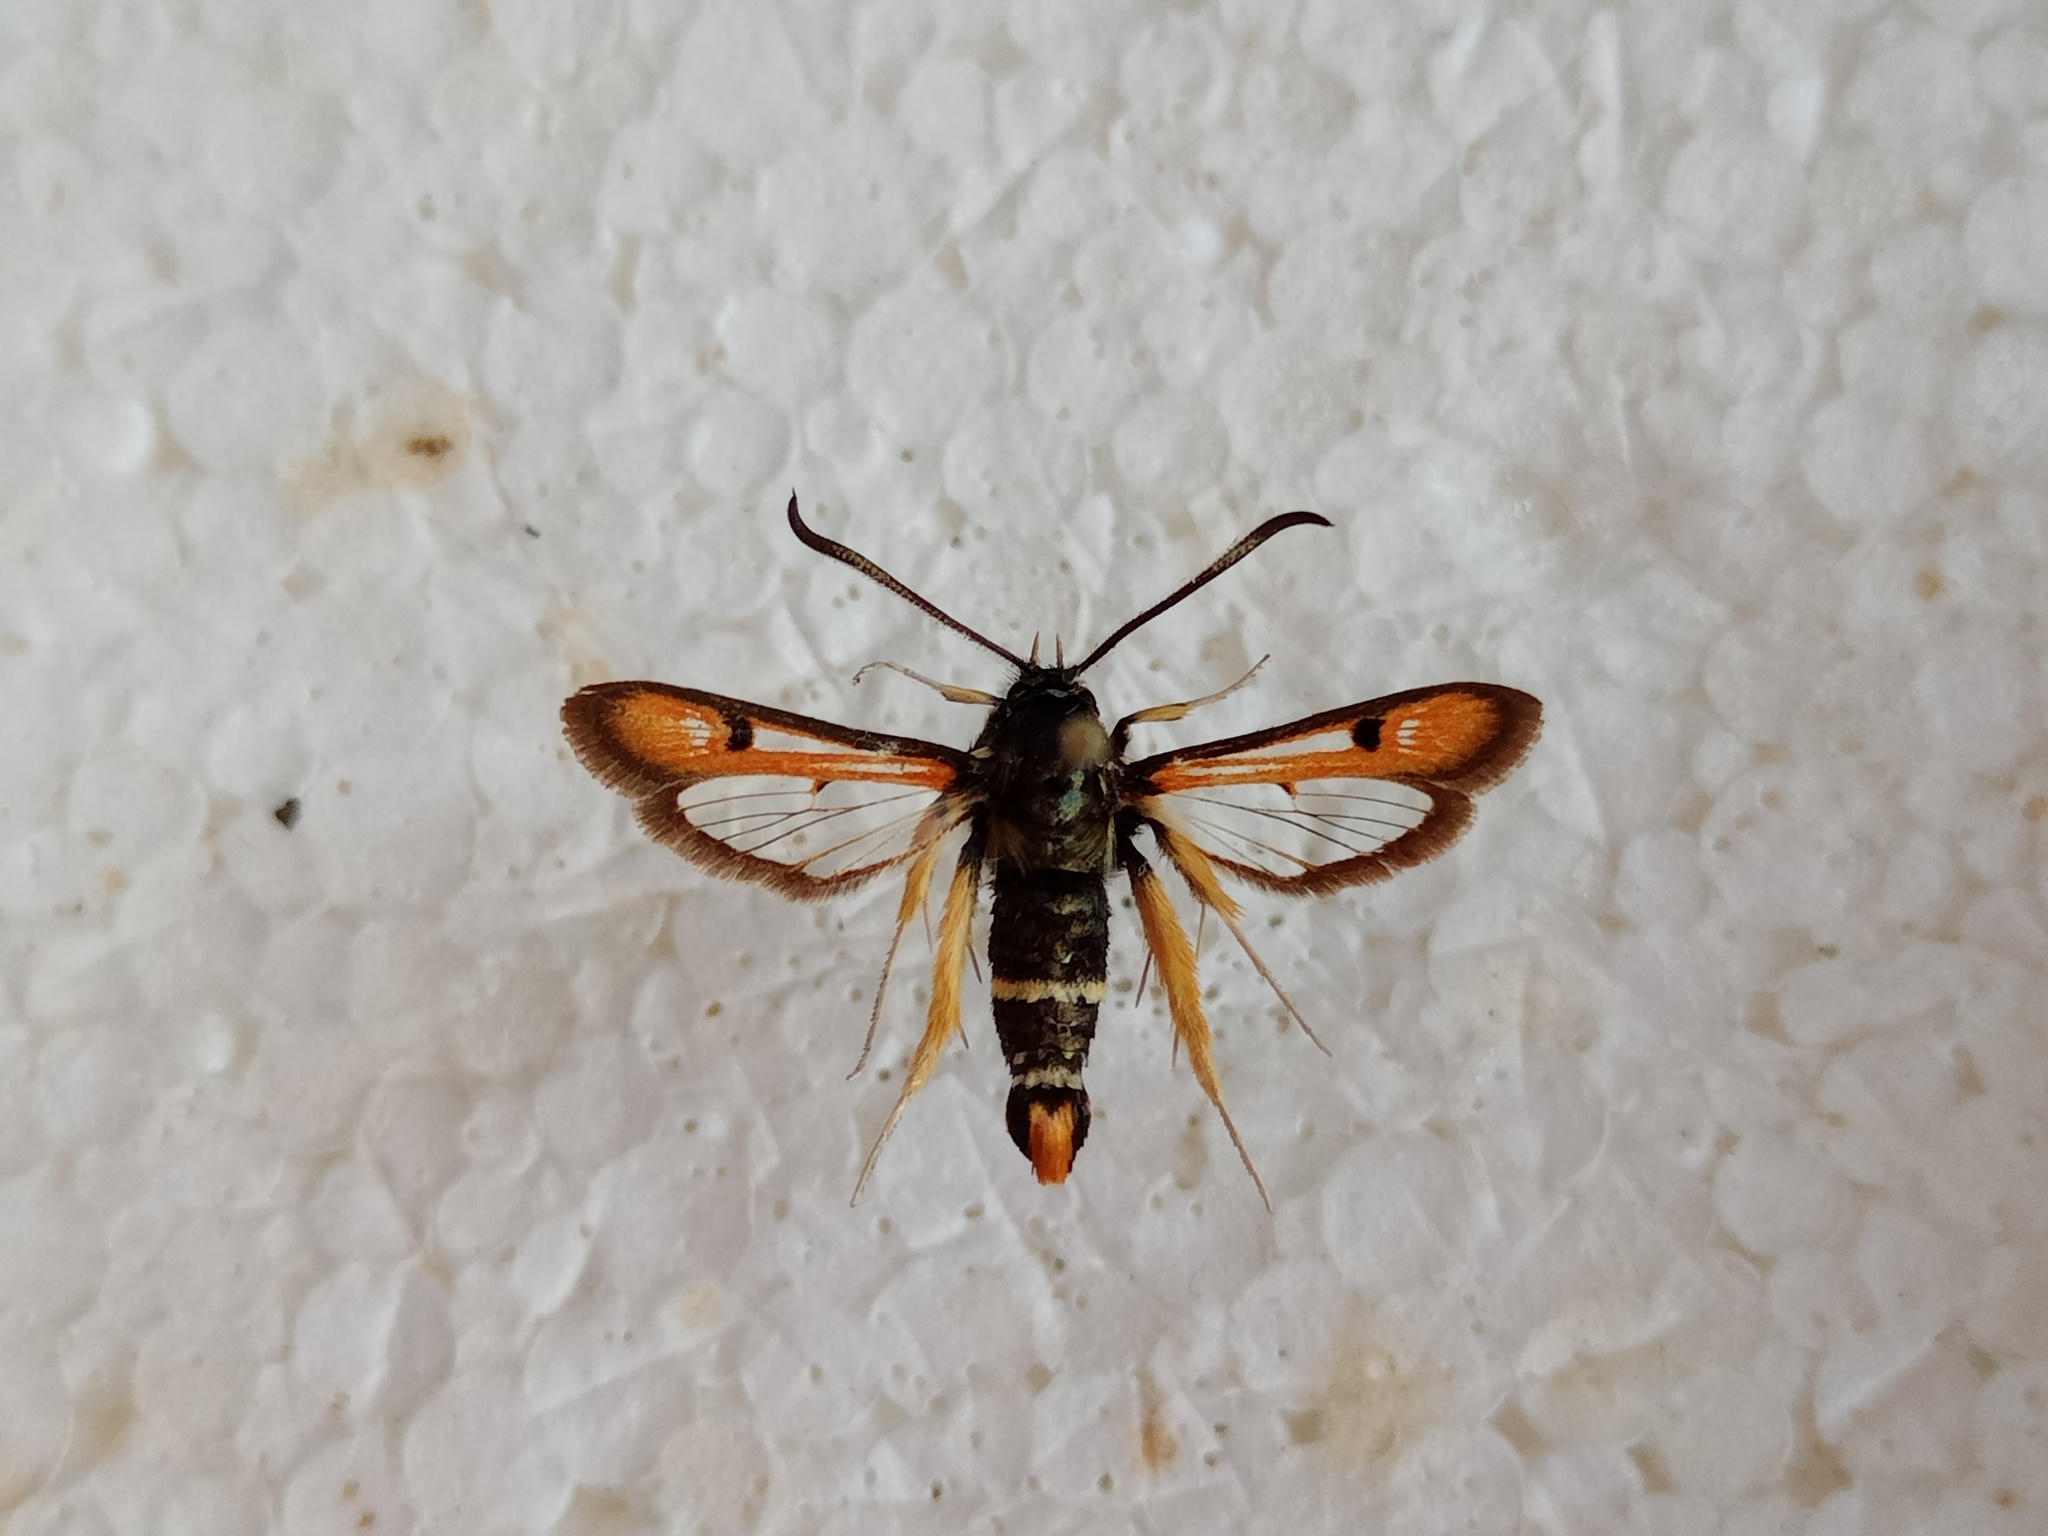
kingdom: Animalia
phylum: Arthropoda
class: Insecta
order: Lepidoptera
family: Sesiidae
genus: Pyropteron
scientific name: Pyropteron chrysidiforme
